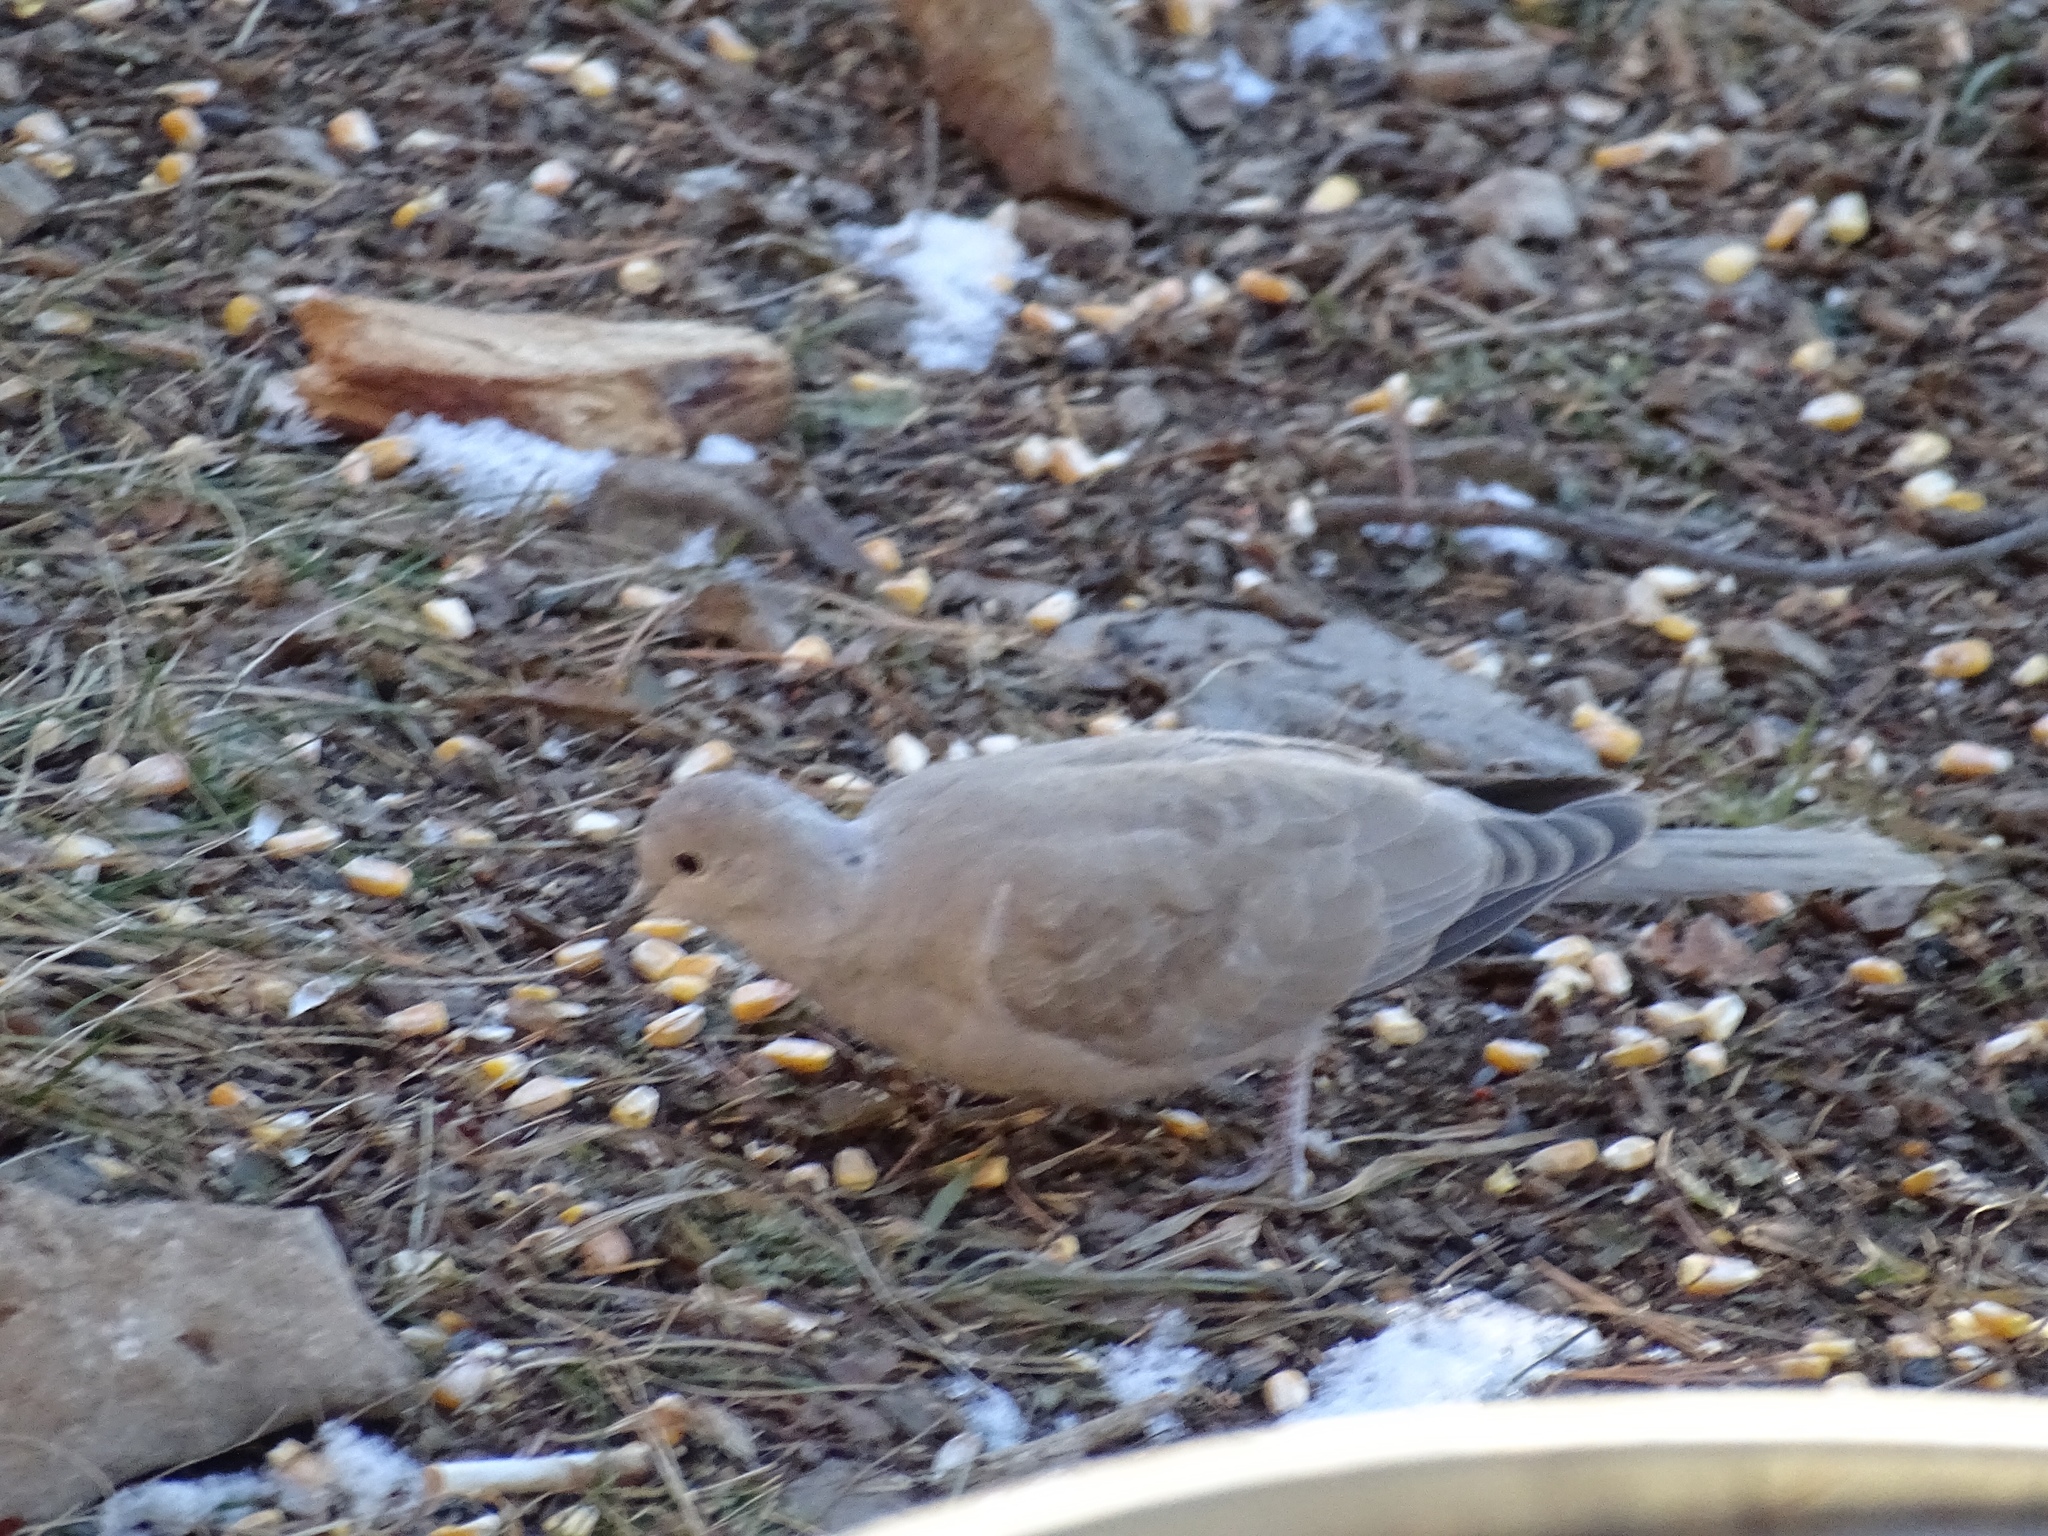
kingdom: Animalia
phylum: Chordata
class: Aves
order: Columbiformes
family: Columbidae
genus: Streptopelia
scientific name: Streptopelia decaocto
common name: Eurasian collared dove
